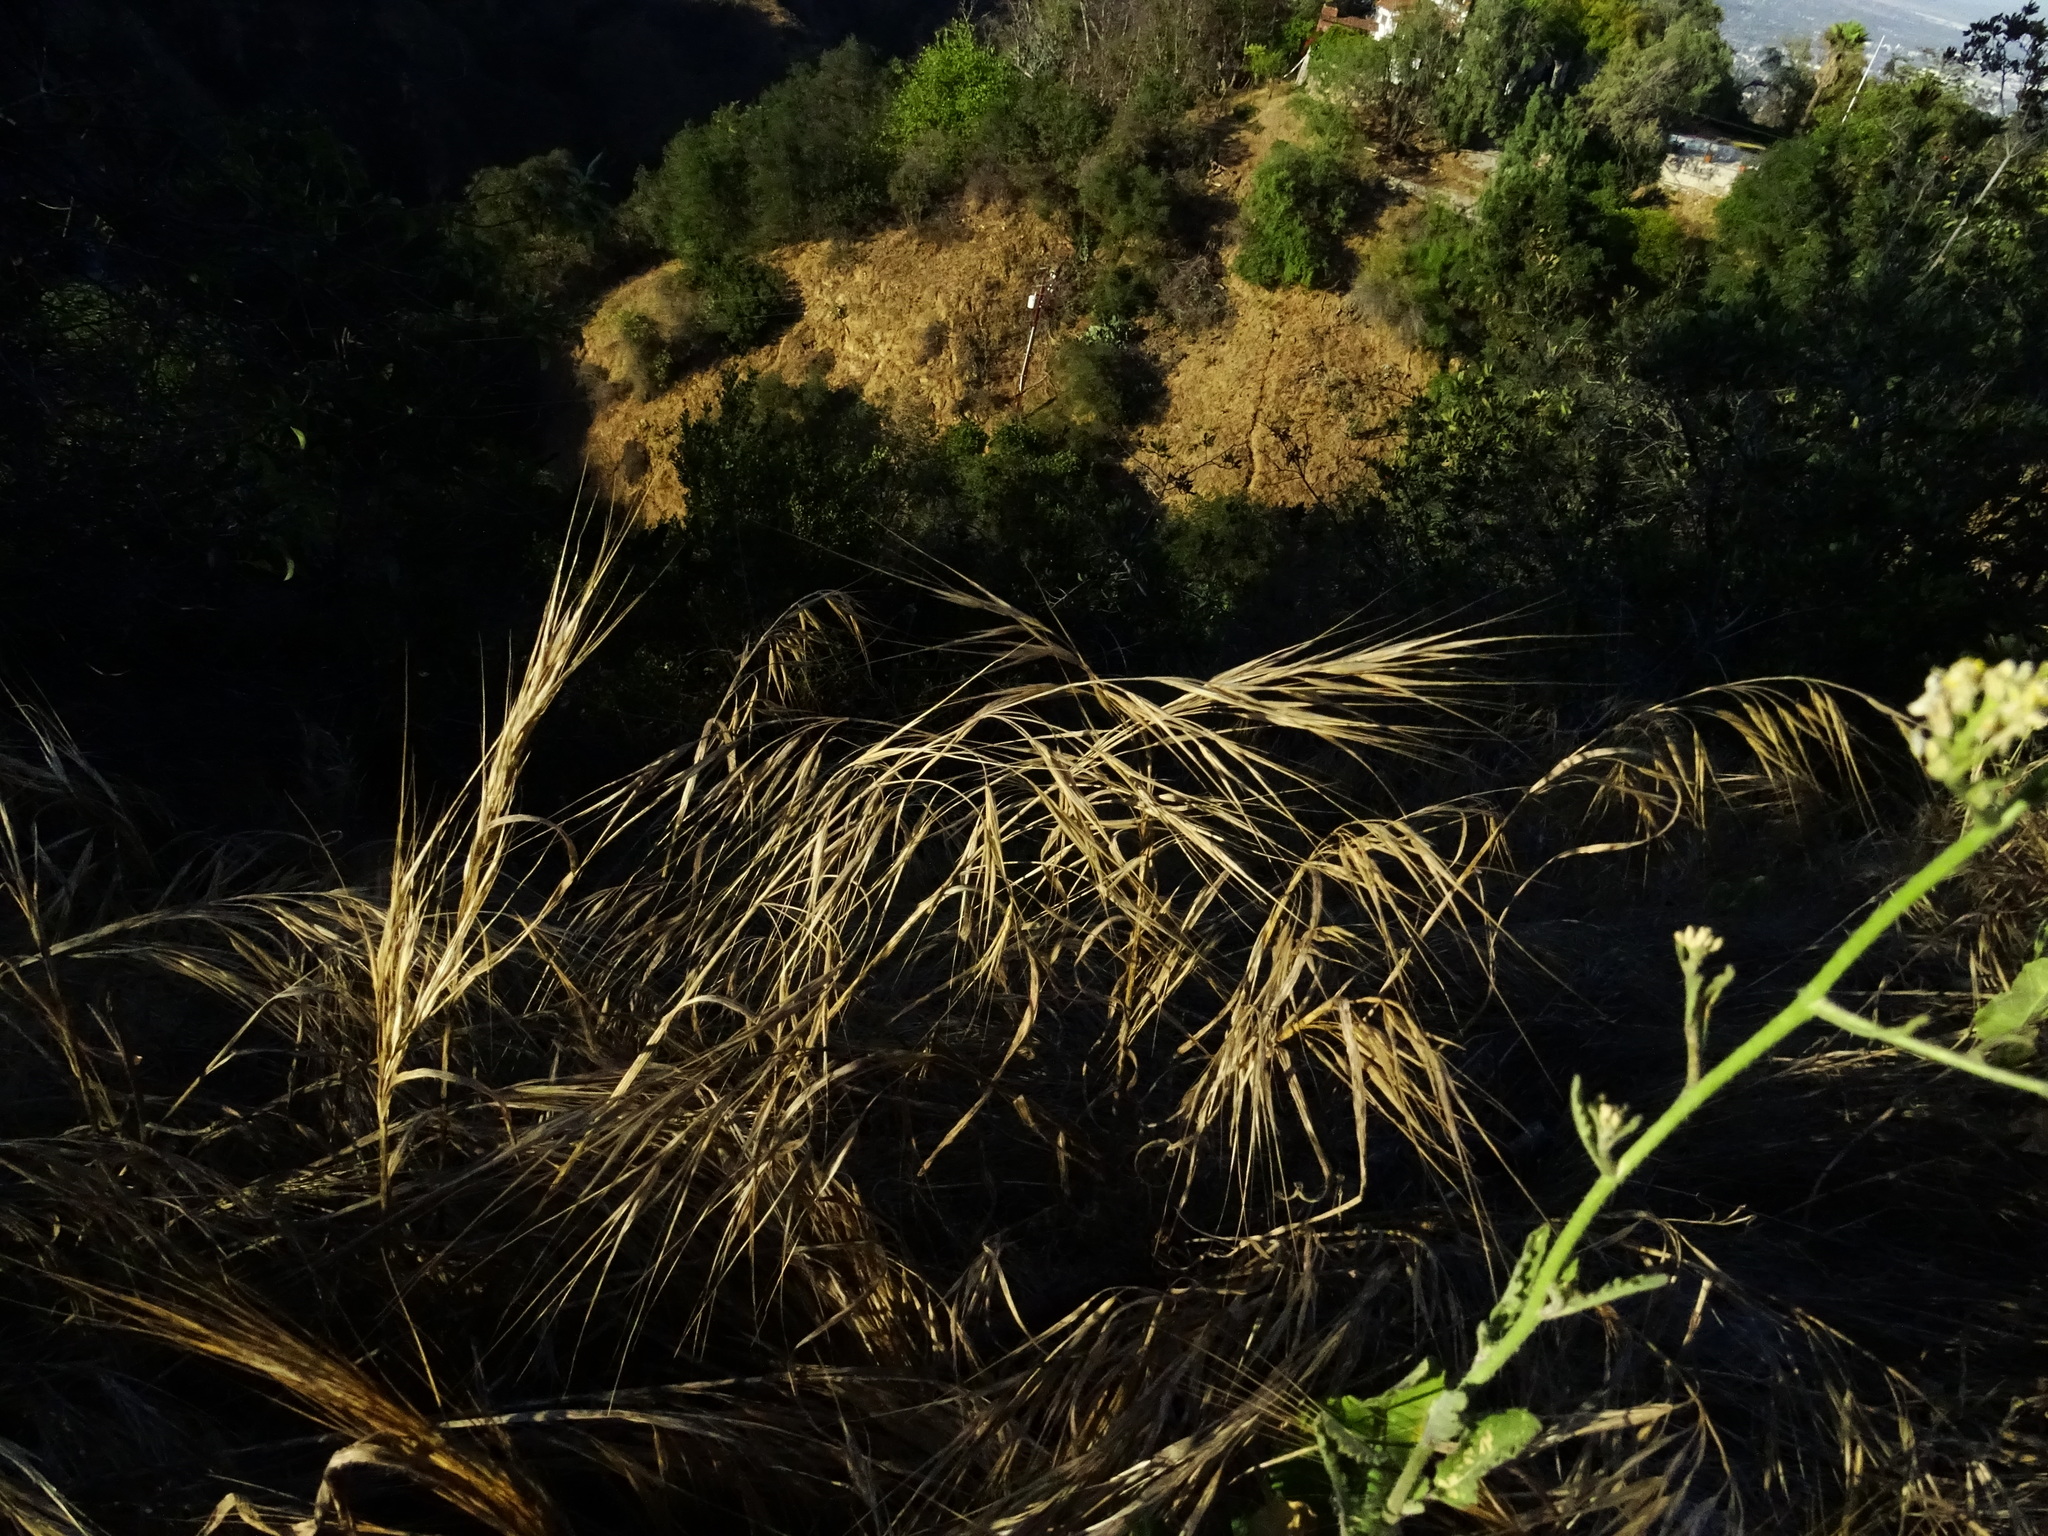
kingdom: Plantae
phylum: Tracheophyta
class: Liliopsida
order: Poales
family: Poaceae
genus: Bromus
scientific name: Bromus diandrus
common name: Ripgut brome
